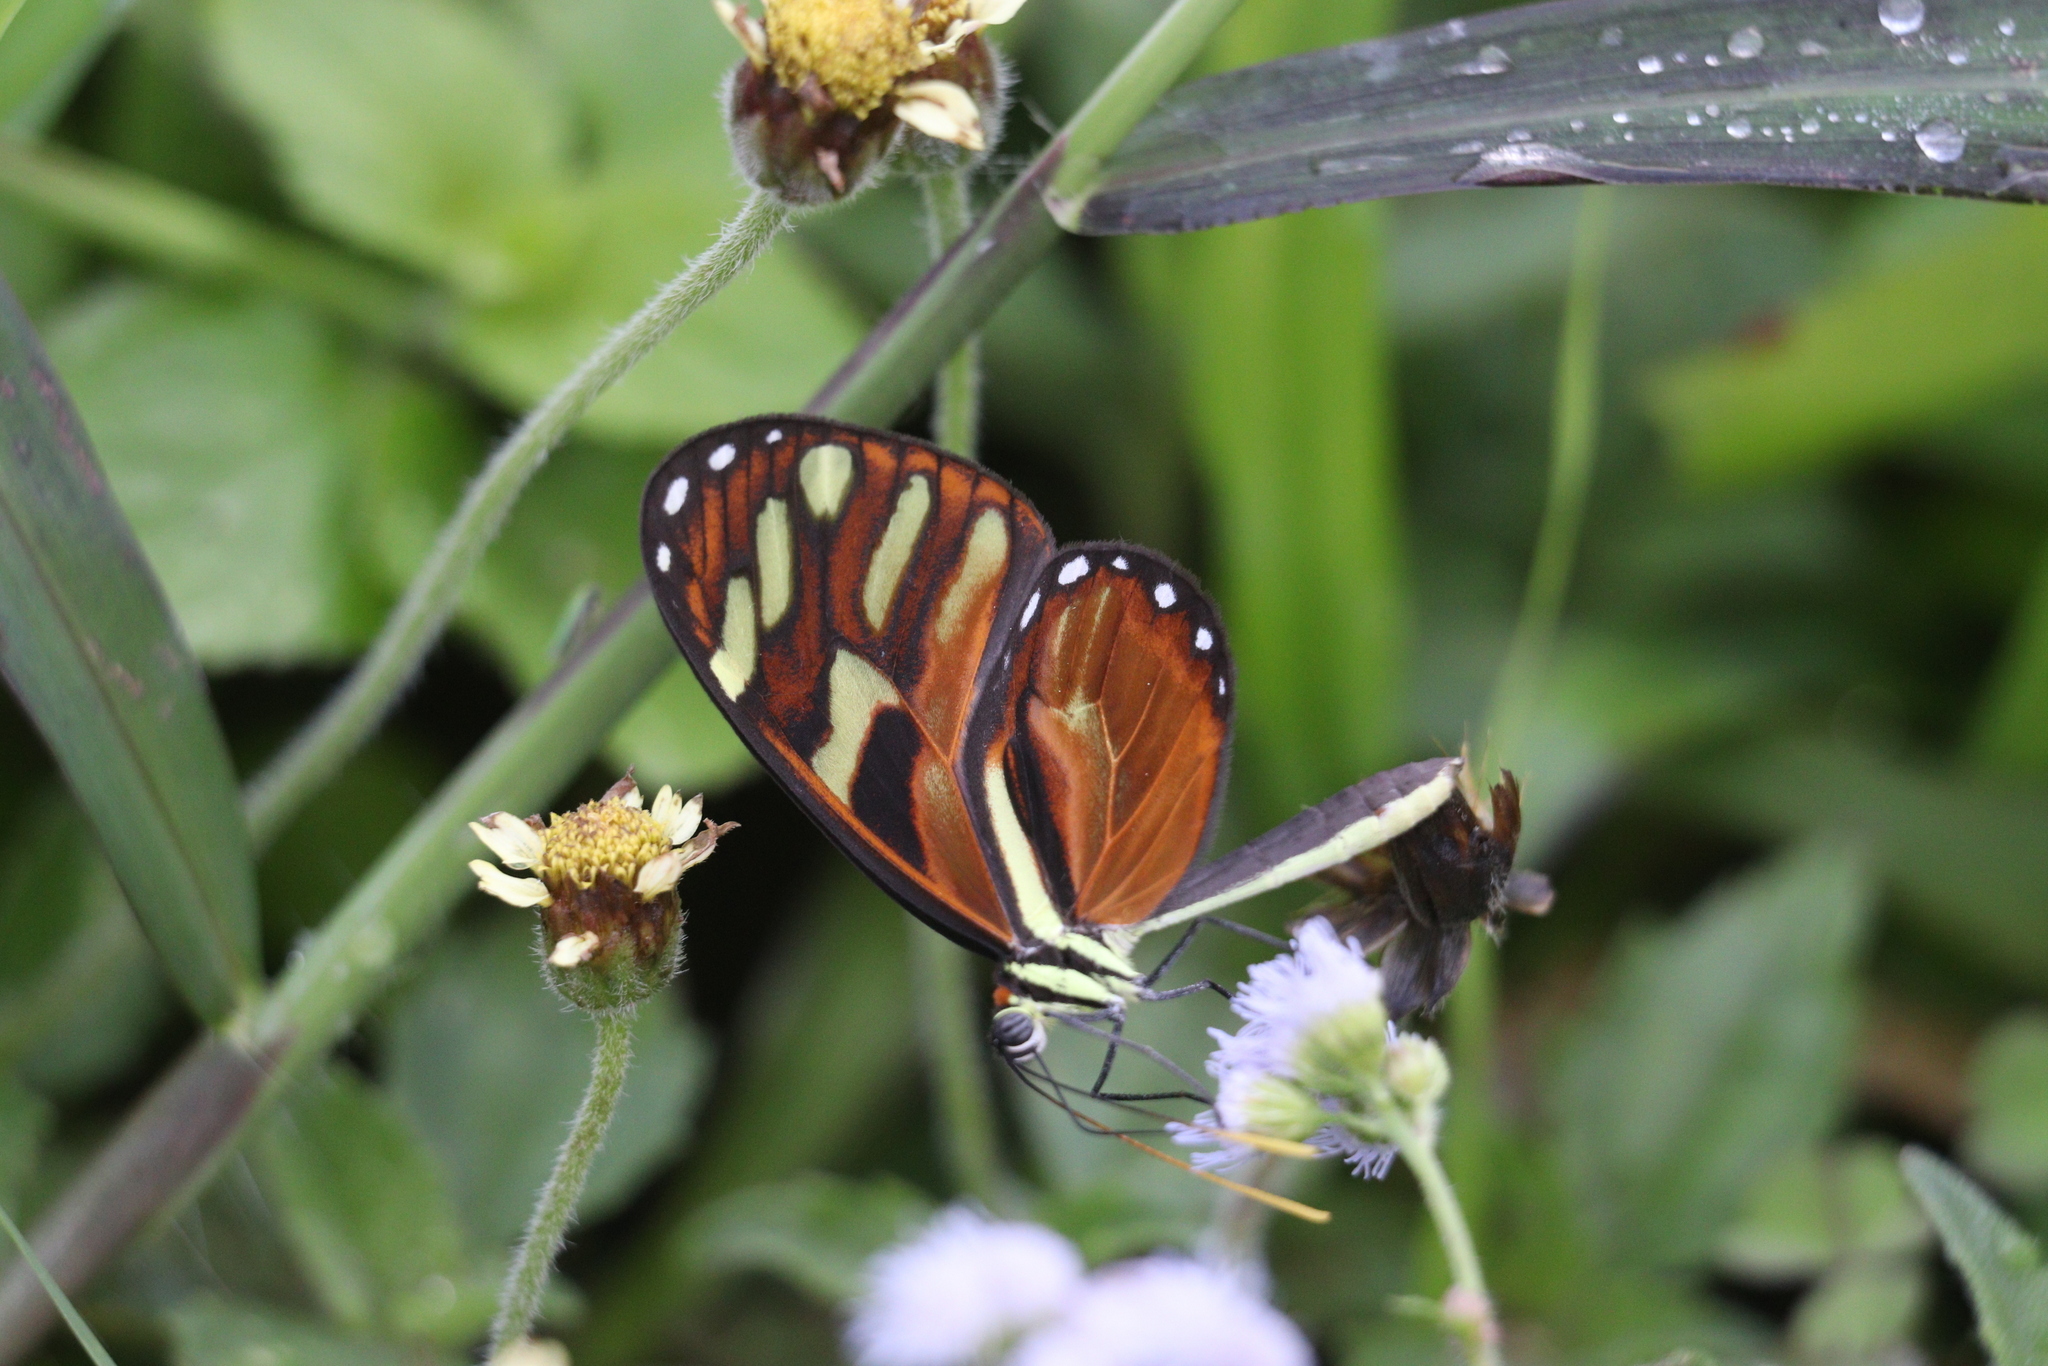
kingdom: Animalia
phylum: Arthropoda
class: Insecta
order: Lepidoptera
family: Nymphalidae
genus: Ithomia
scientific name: Ithomia heraldica
